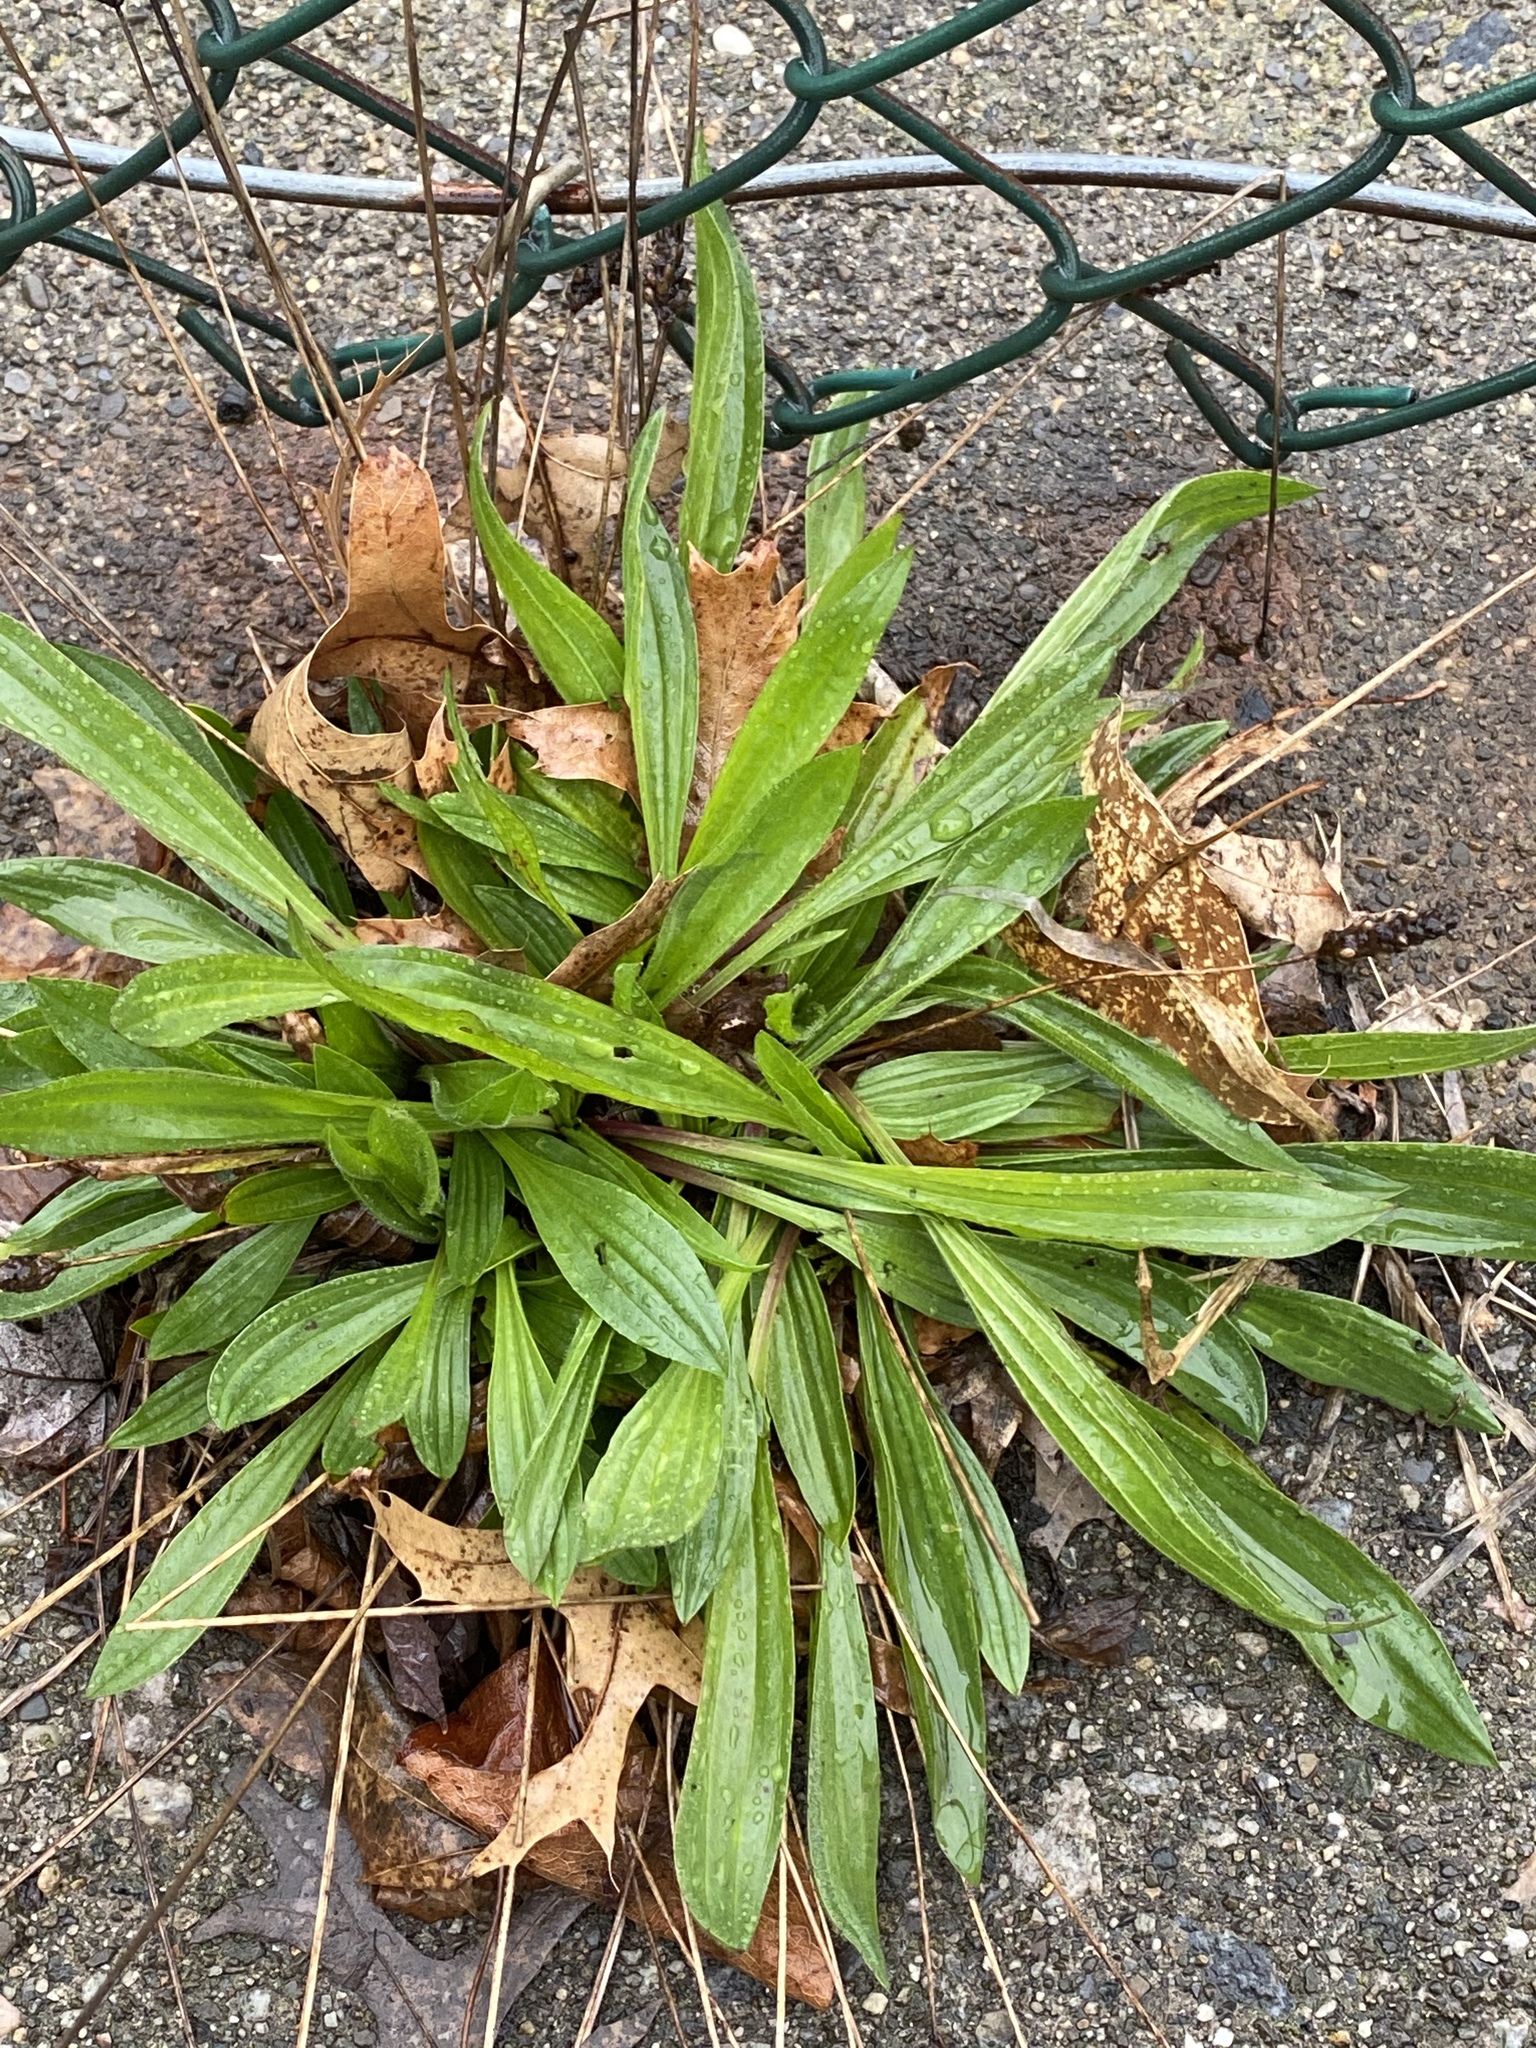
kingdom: Plantae
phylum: Tracheophyta
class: Magnoliopsida
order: Lamiales
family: Plantaginaceae
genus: Plantago
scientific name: Plantago lanceolata
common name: Ribwort plantain
